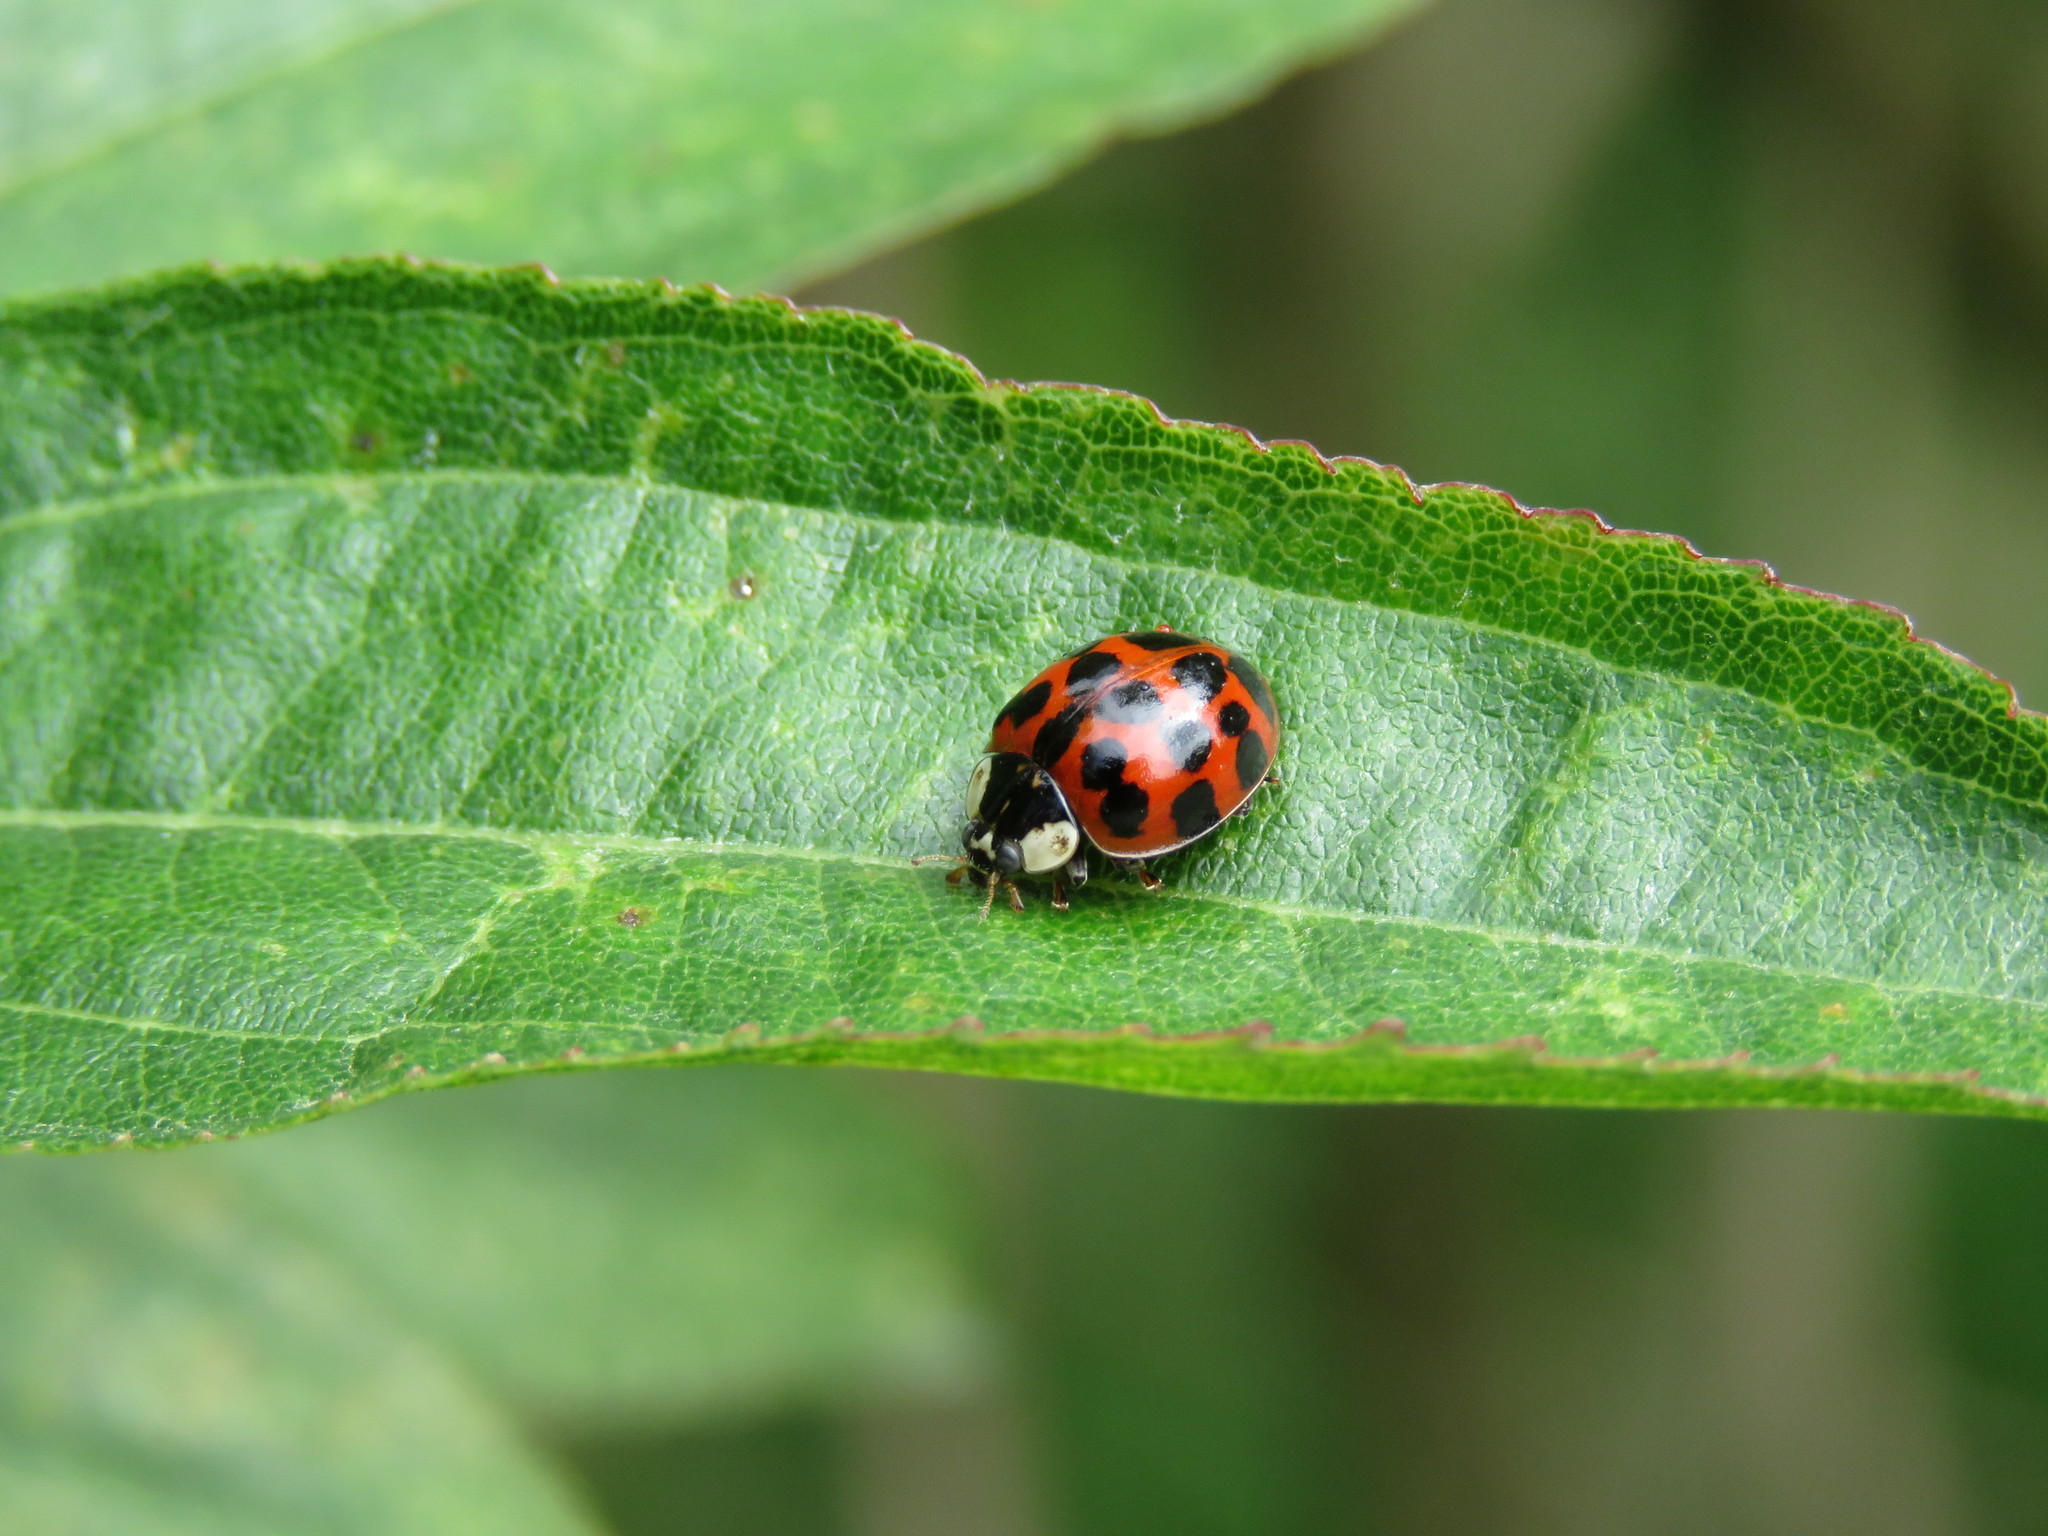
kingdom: Animalia
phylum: Arthropoda
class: Insecta
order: Coleoptera
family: Coccinellidae
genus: Harmonia
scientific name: Harmonia axyridis
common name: Harlequin ladybird
